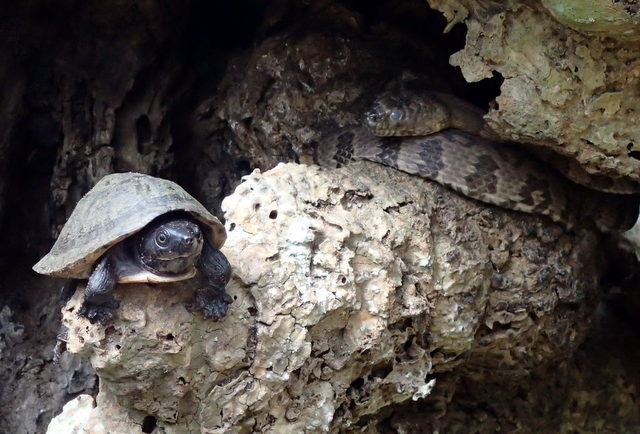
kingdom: Animalia
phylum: Chordata
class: Testudines
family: Kinosternidae
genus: Sternotherus
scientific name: Sternotherus minor
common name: Loggerhead musk turtle
